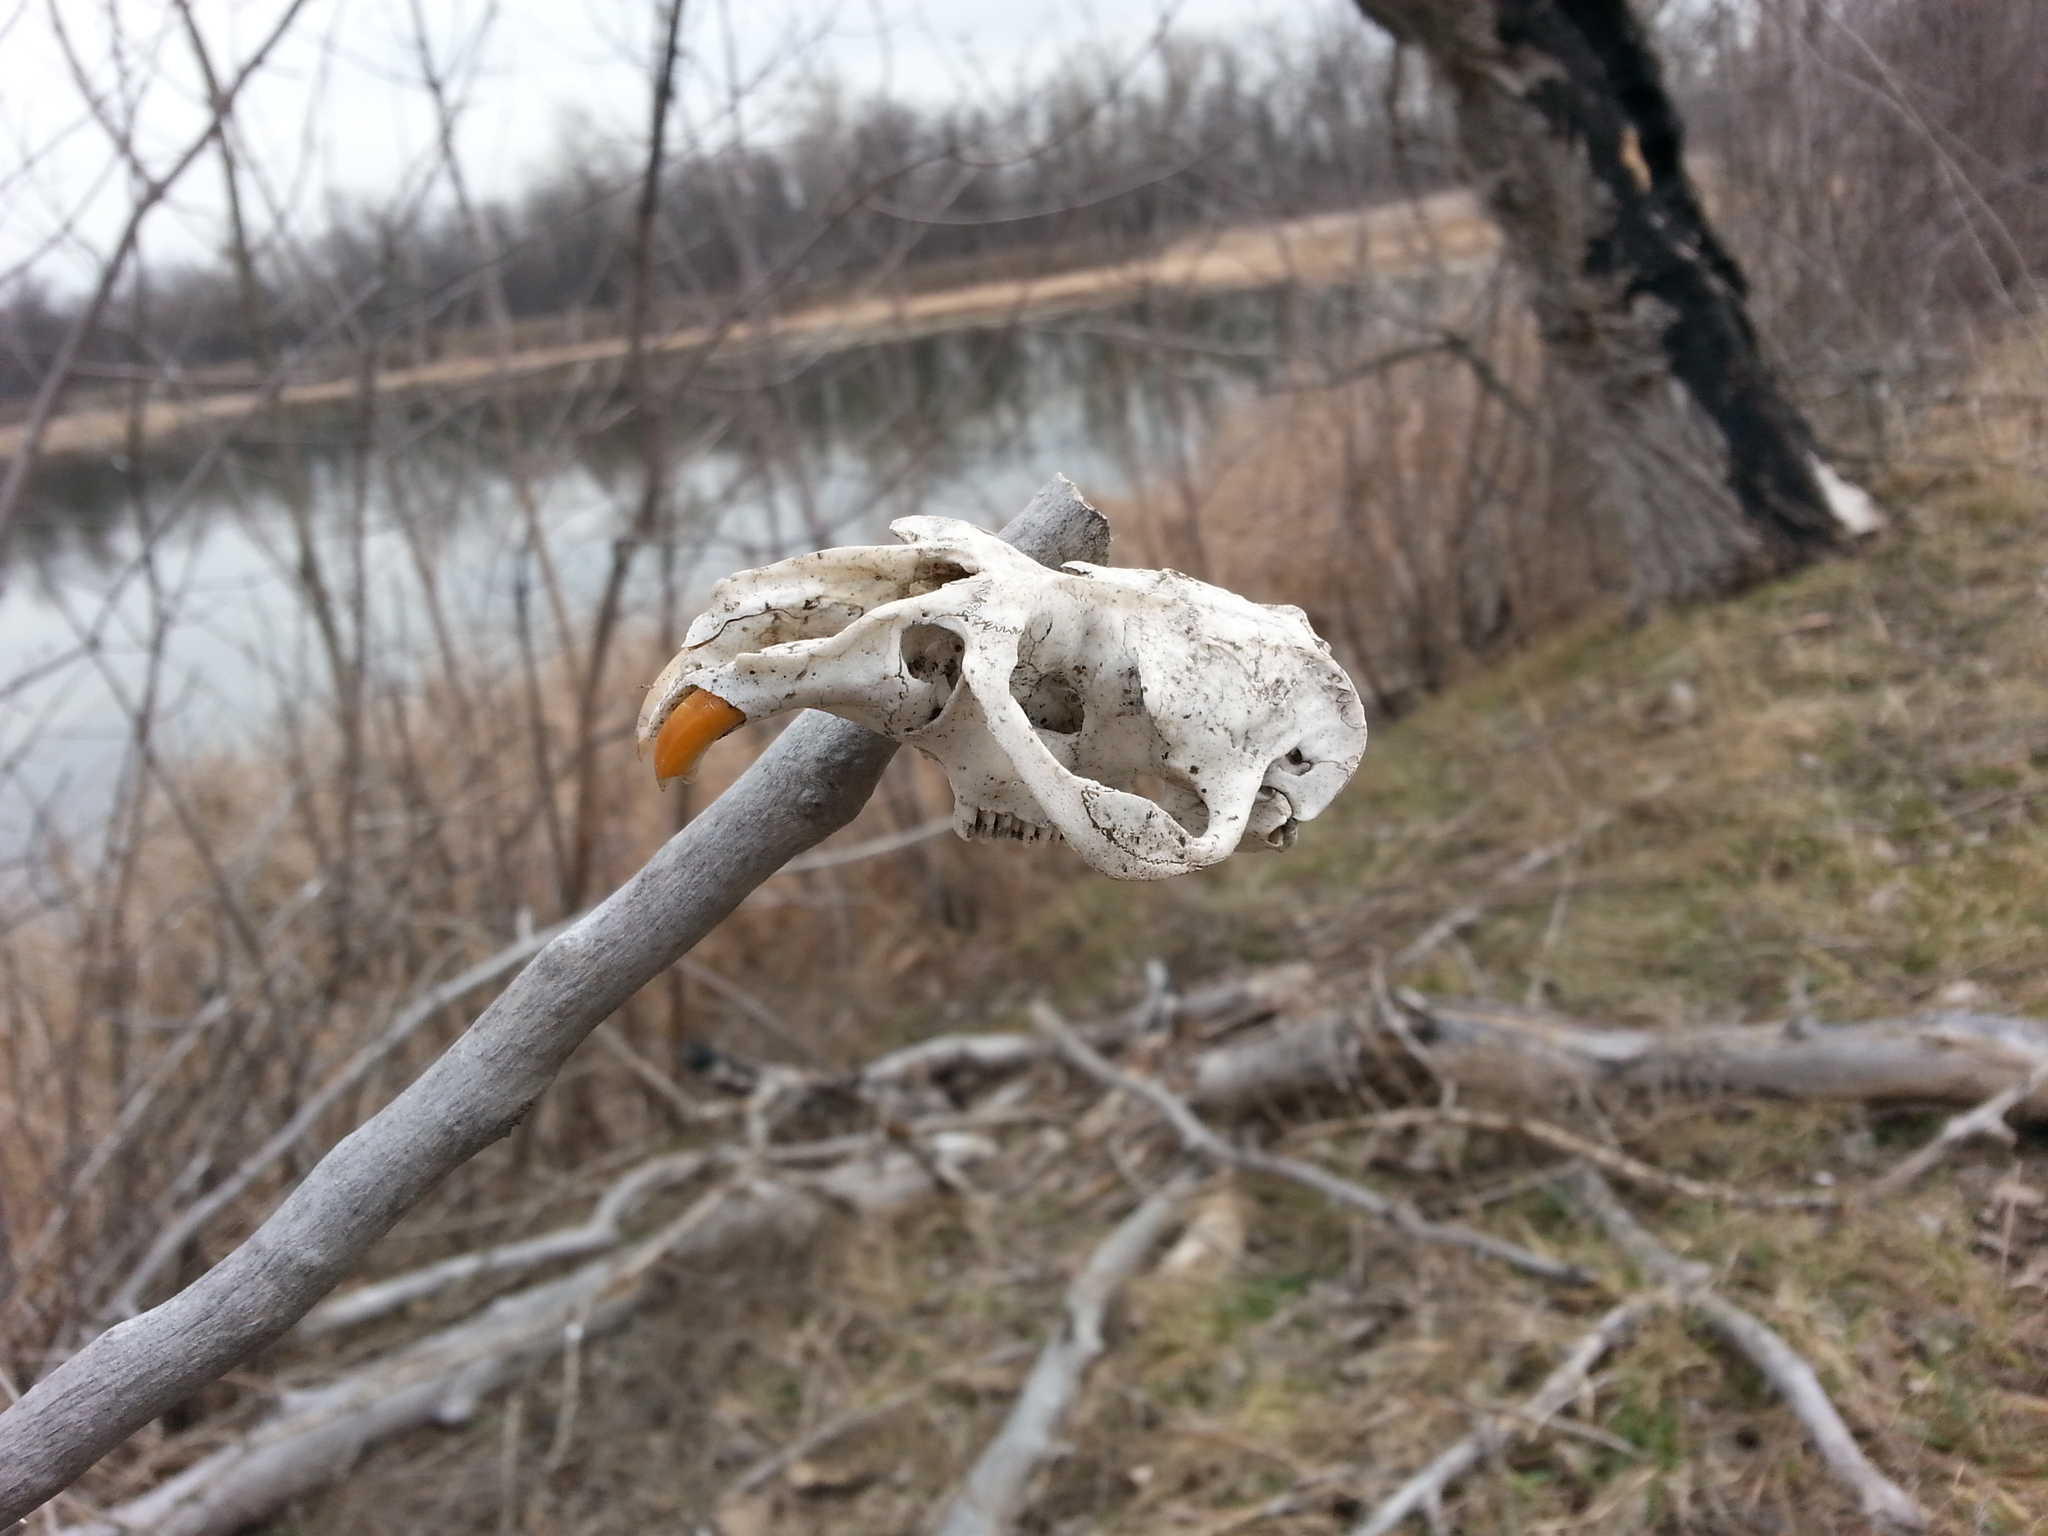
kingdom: Animalia
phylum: Chordata
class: Mammalia
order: Rodentia
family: Cricetidae
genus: Ondatra
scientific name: Ondatra zibethicus
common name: Muskrat
